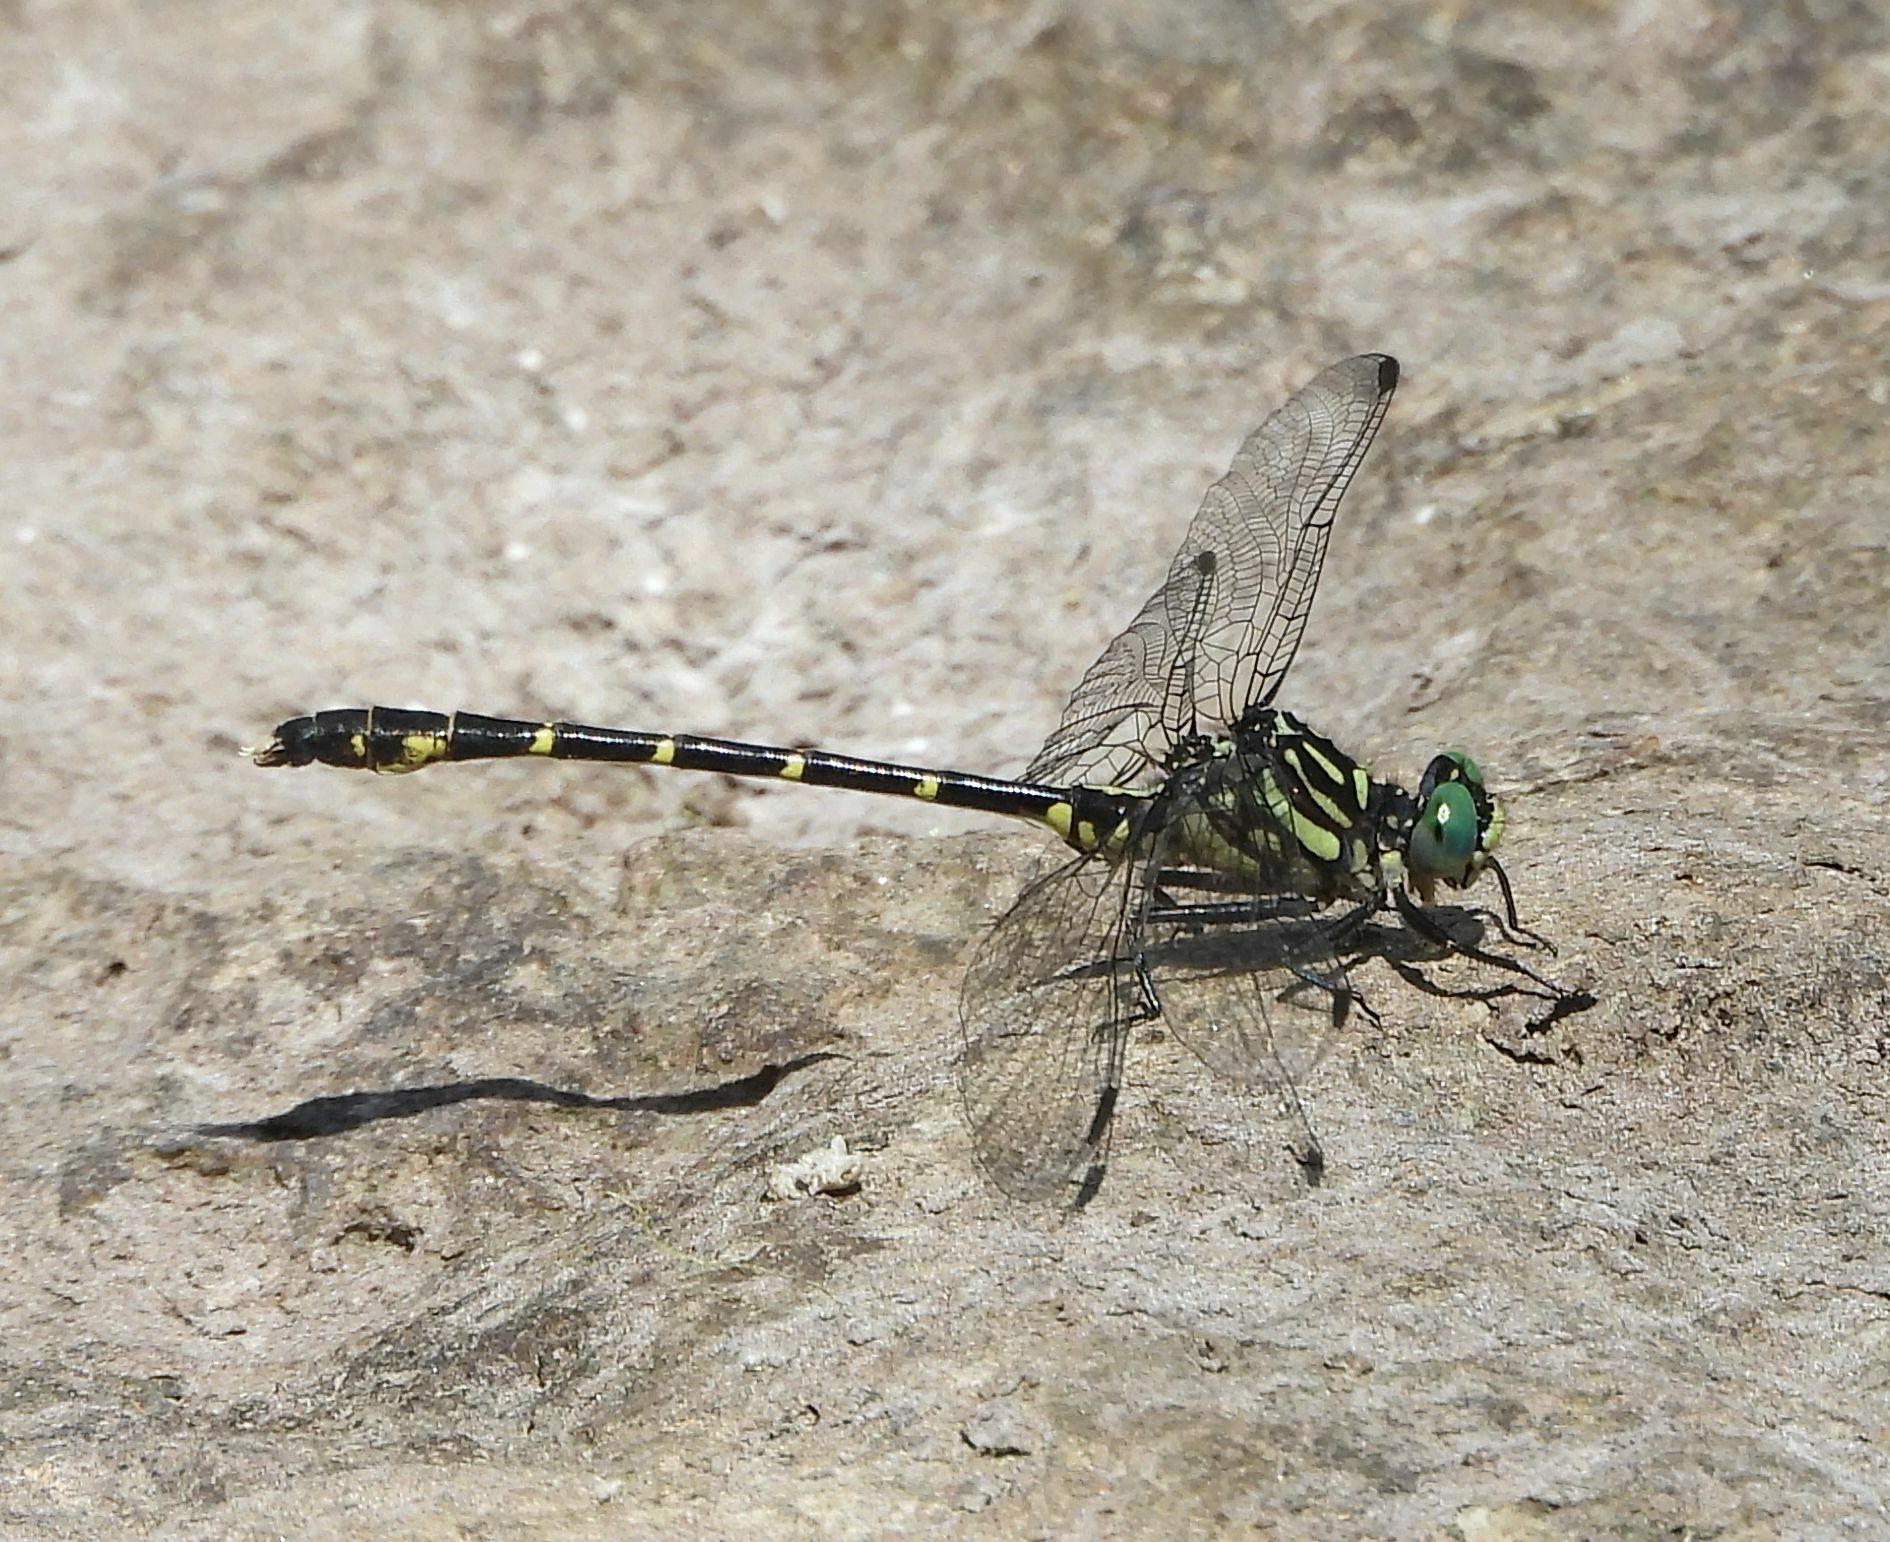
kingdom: Animalia
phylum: Arthropoda
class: Insecta
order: Odonata
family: Gomphidae
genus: Stylogomphus
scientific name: Stylogomphus albistylus
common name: Eastern least clubtail
